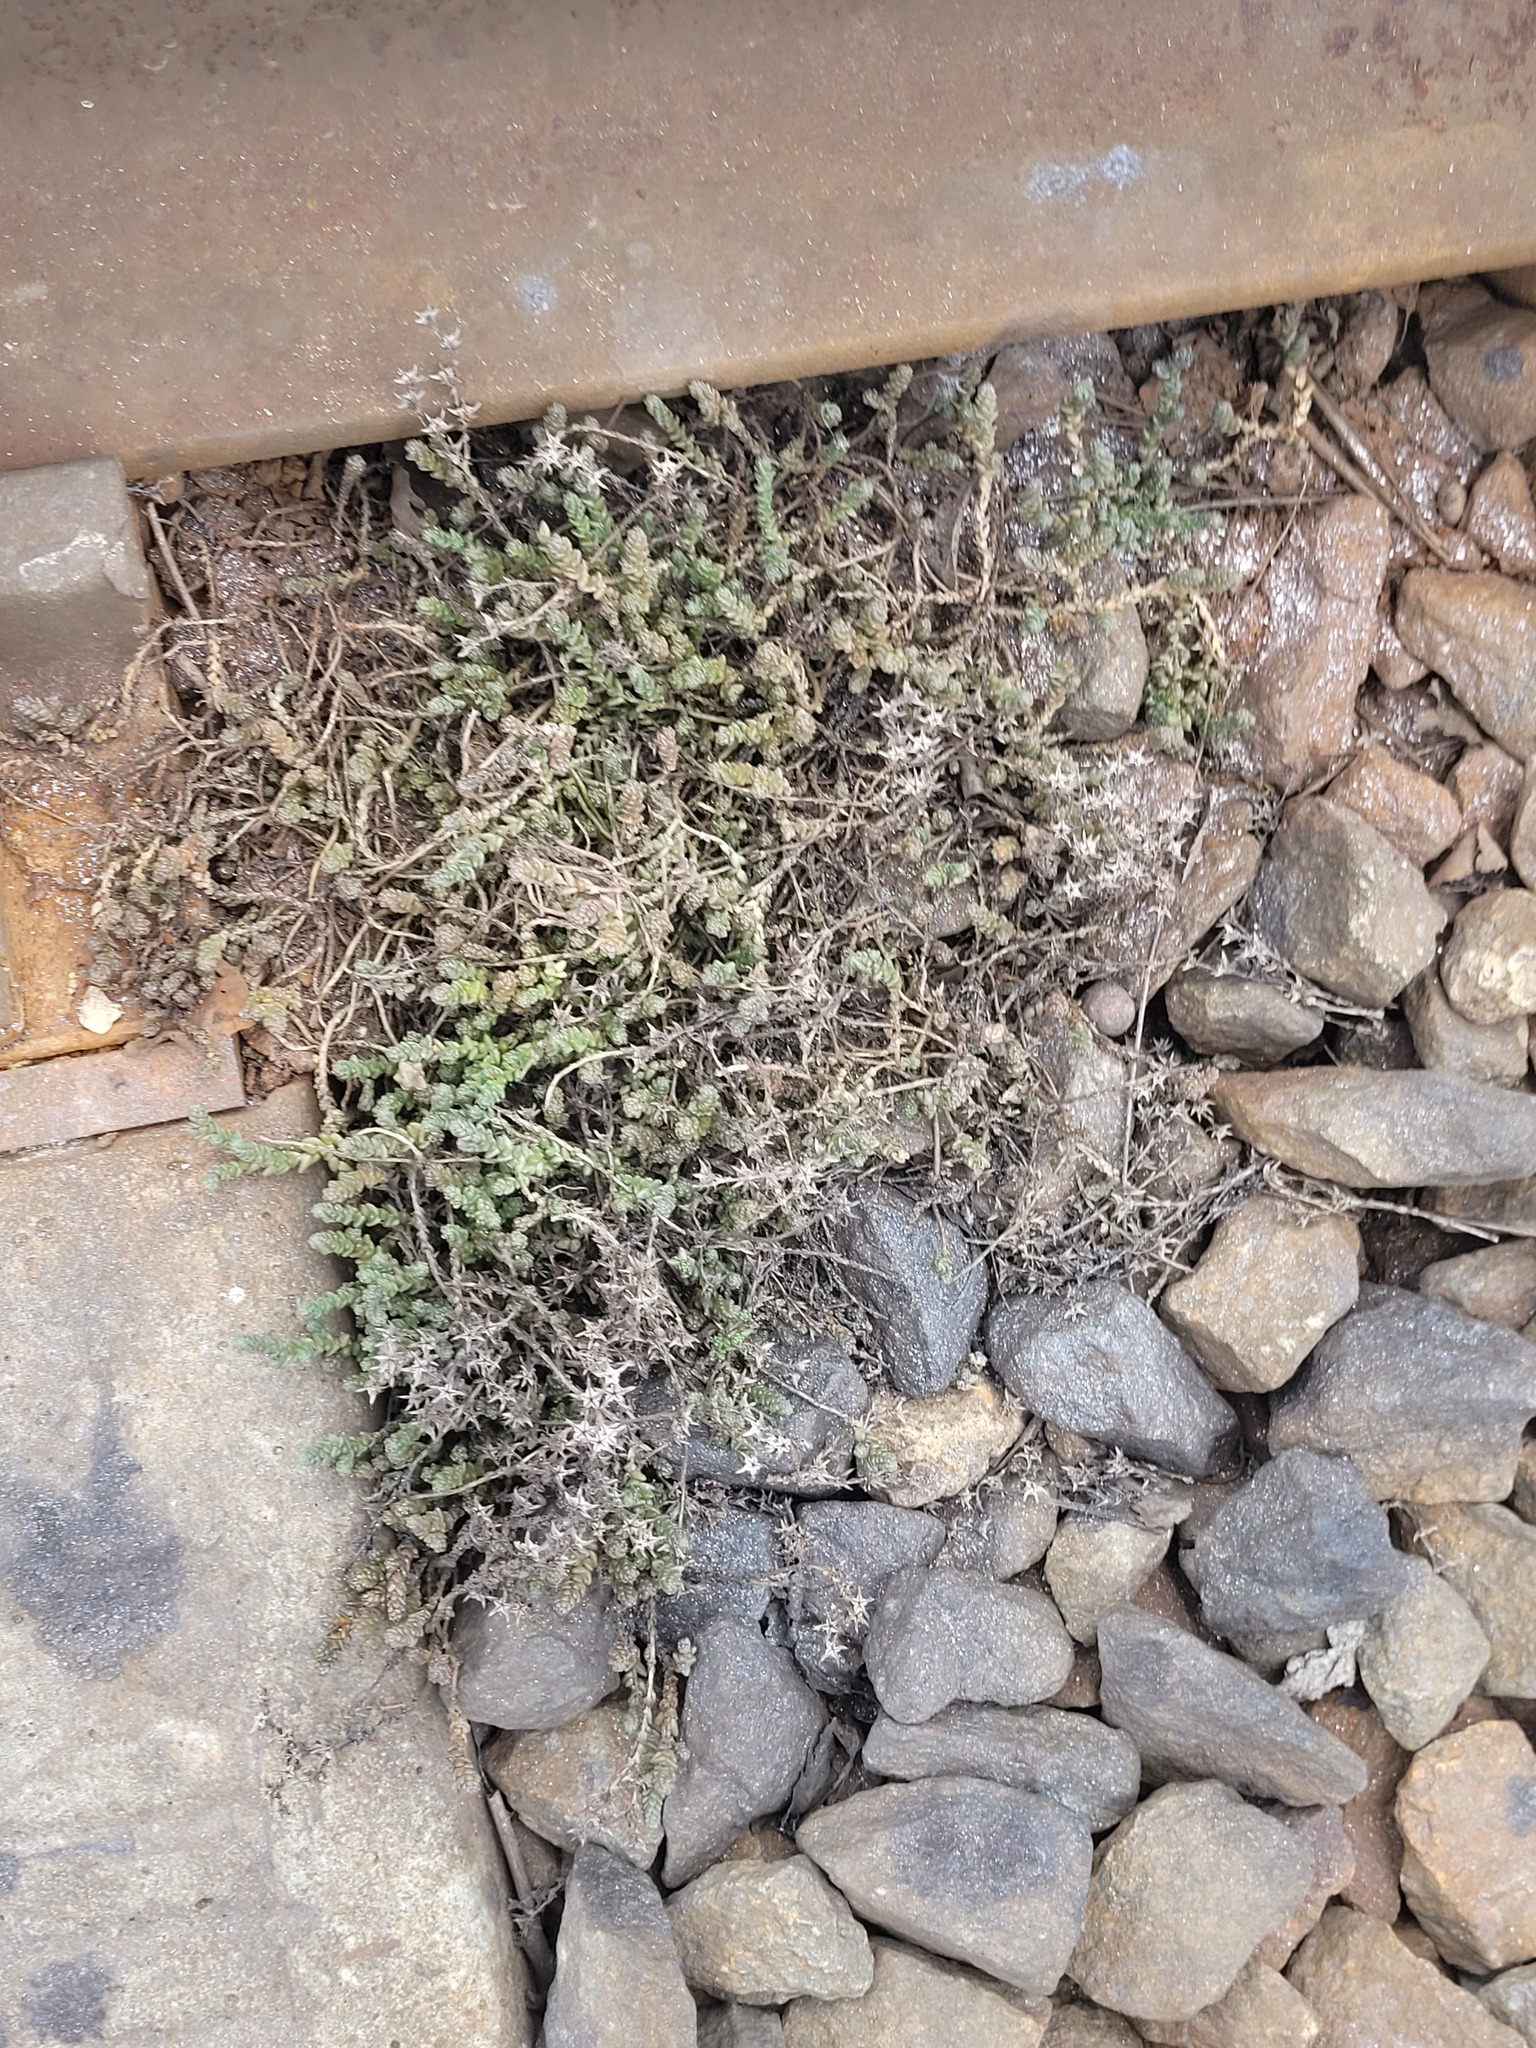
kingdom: Plantae
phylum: Tracheophyta
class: Magnoliopsida
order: Saxifragales
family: Crassulaceae
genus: Sedum
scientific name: Sedum acre
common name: Biting stonecrop
